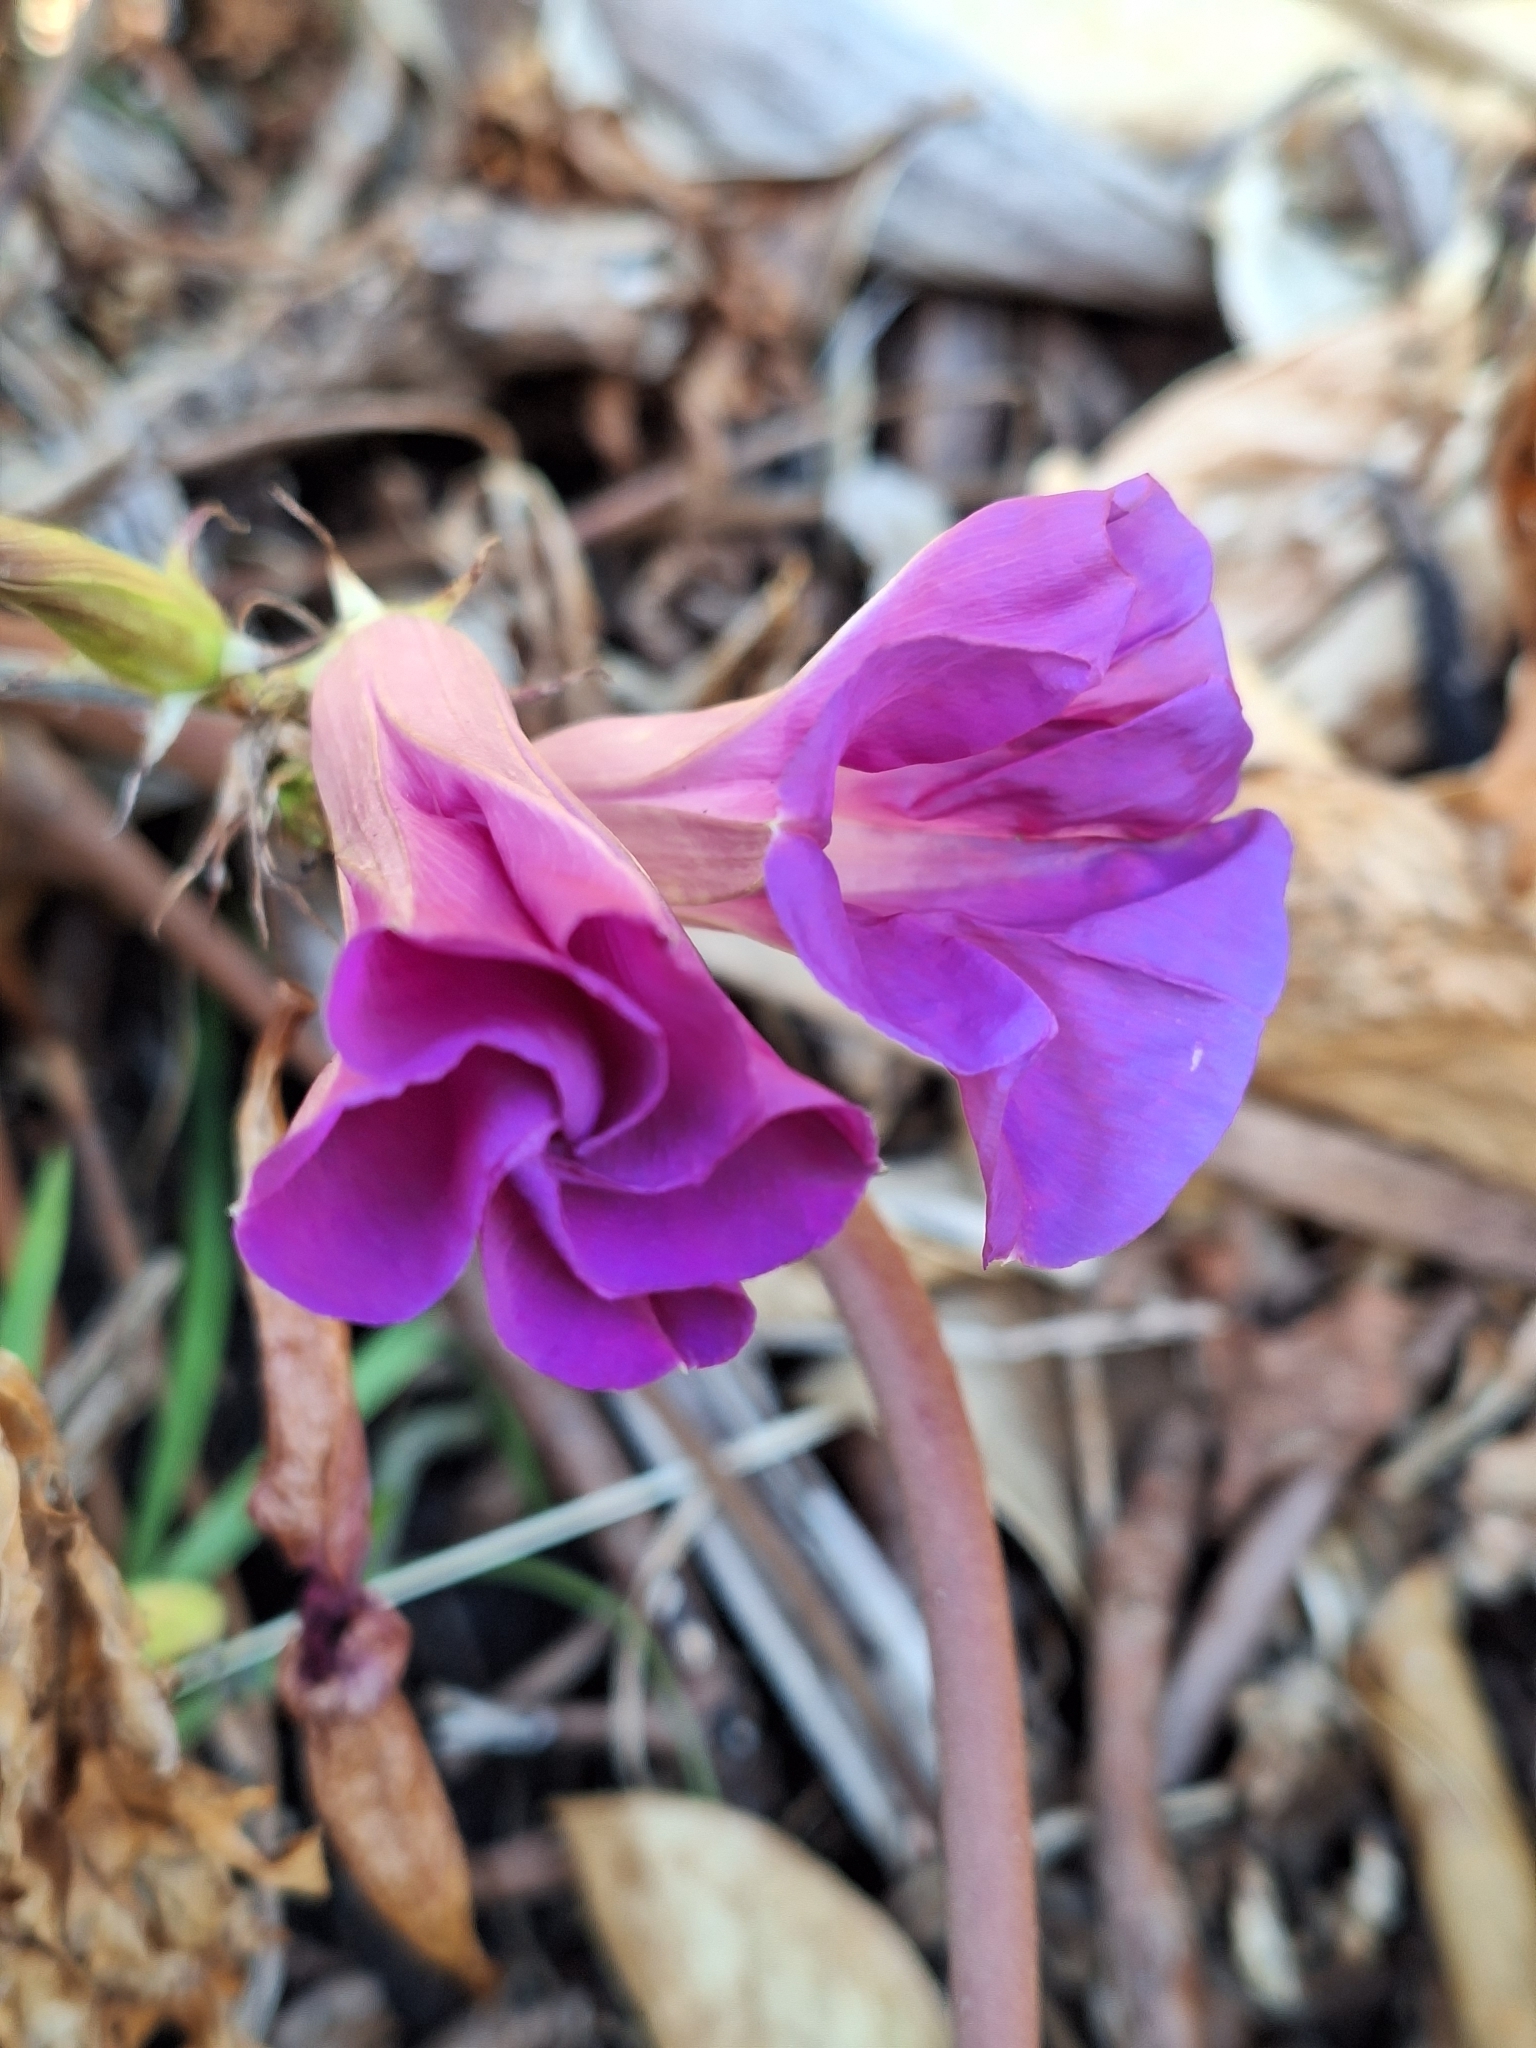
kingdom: Plantae
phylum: Tracheophyta
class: Magnoliopsida
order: Solanales
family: Convolvulaceae
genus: Ipomoea
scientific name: Ipomoea indica
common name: Blue dawnflower
